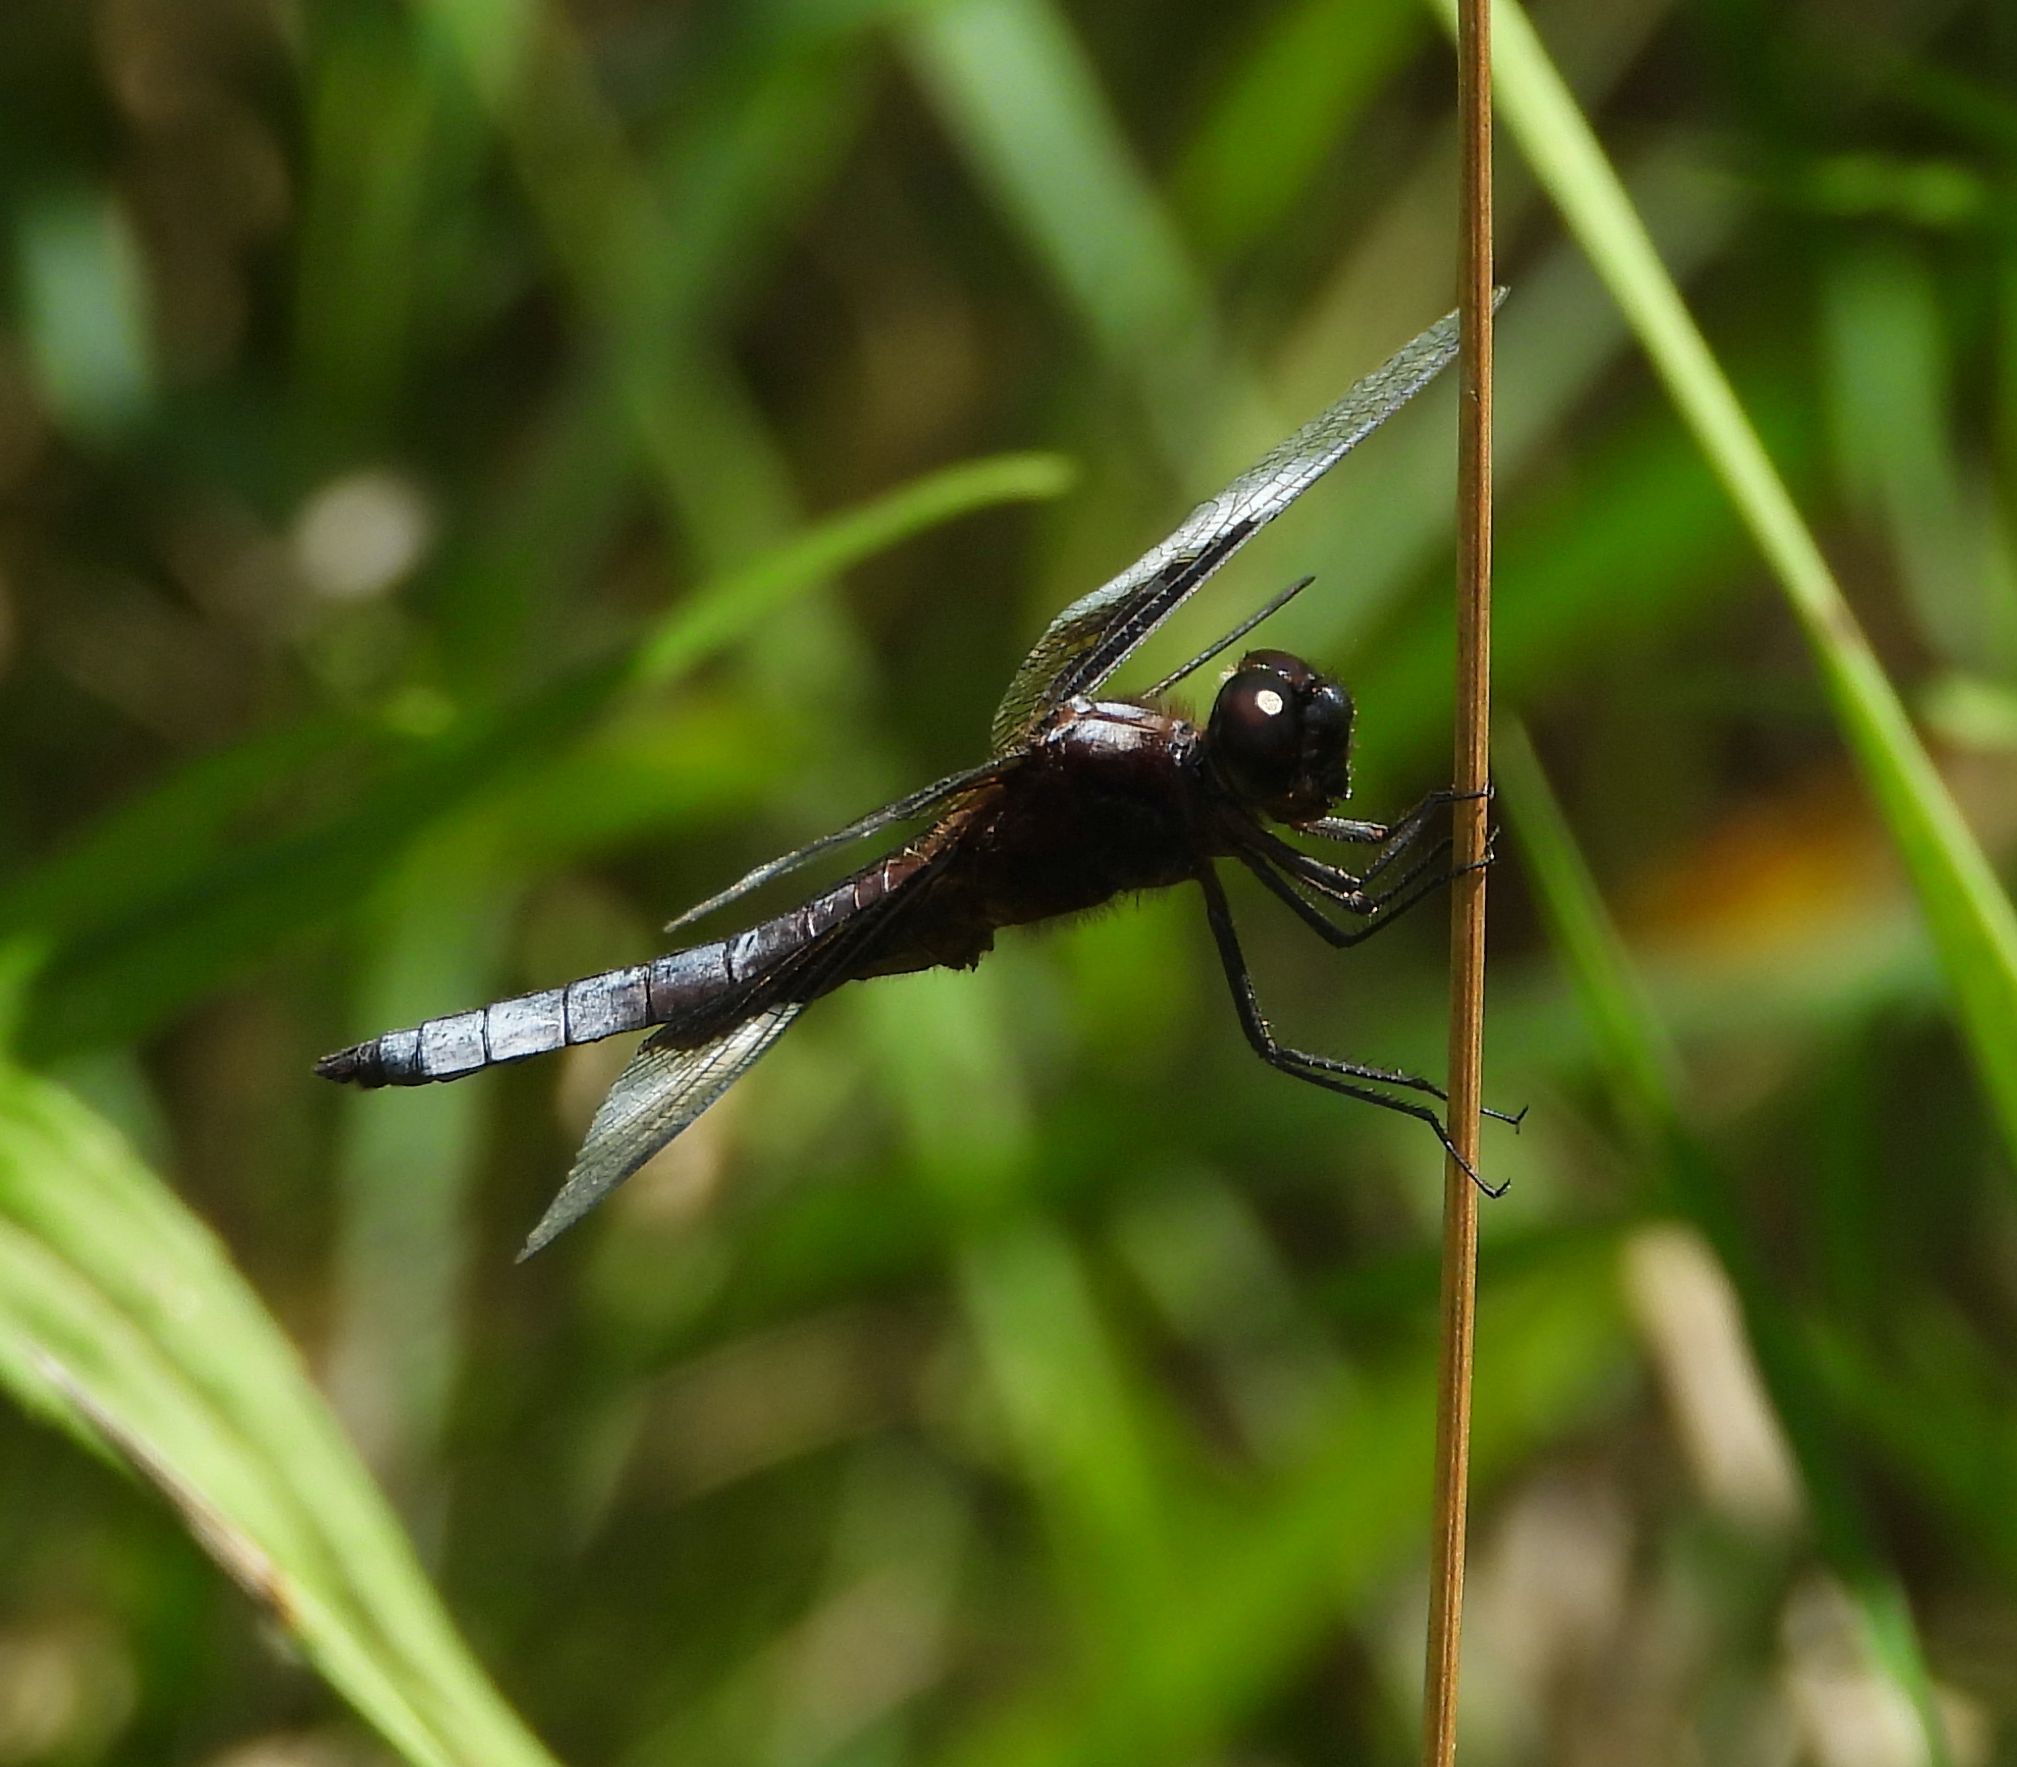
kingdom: Animalia
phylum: Arthropoda
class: Insecta
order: Odonata
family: Libellulidae
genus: Libellula
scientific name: Libellula luctuosa
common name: Widow skimmer
